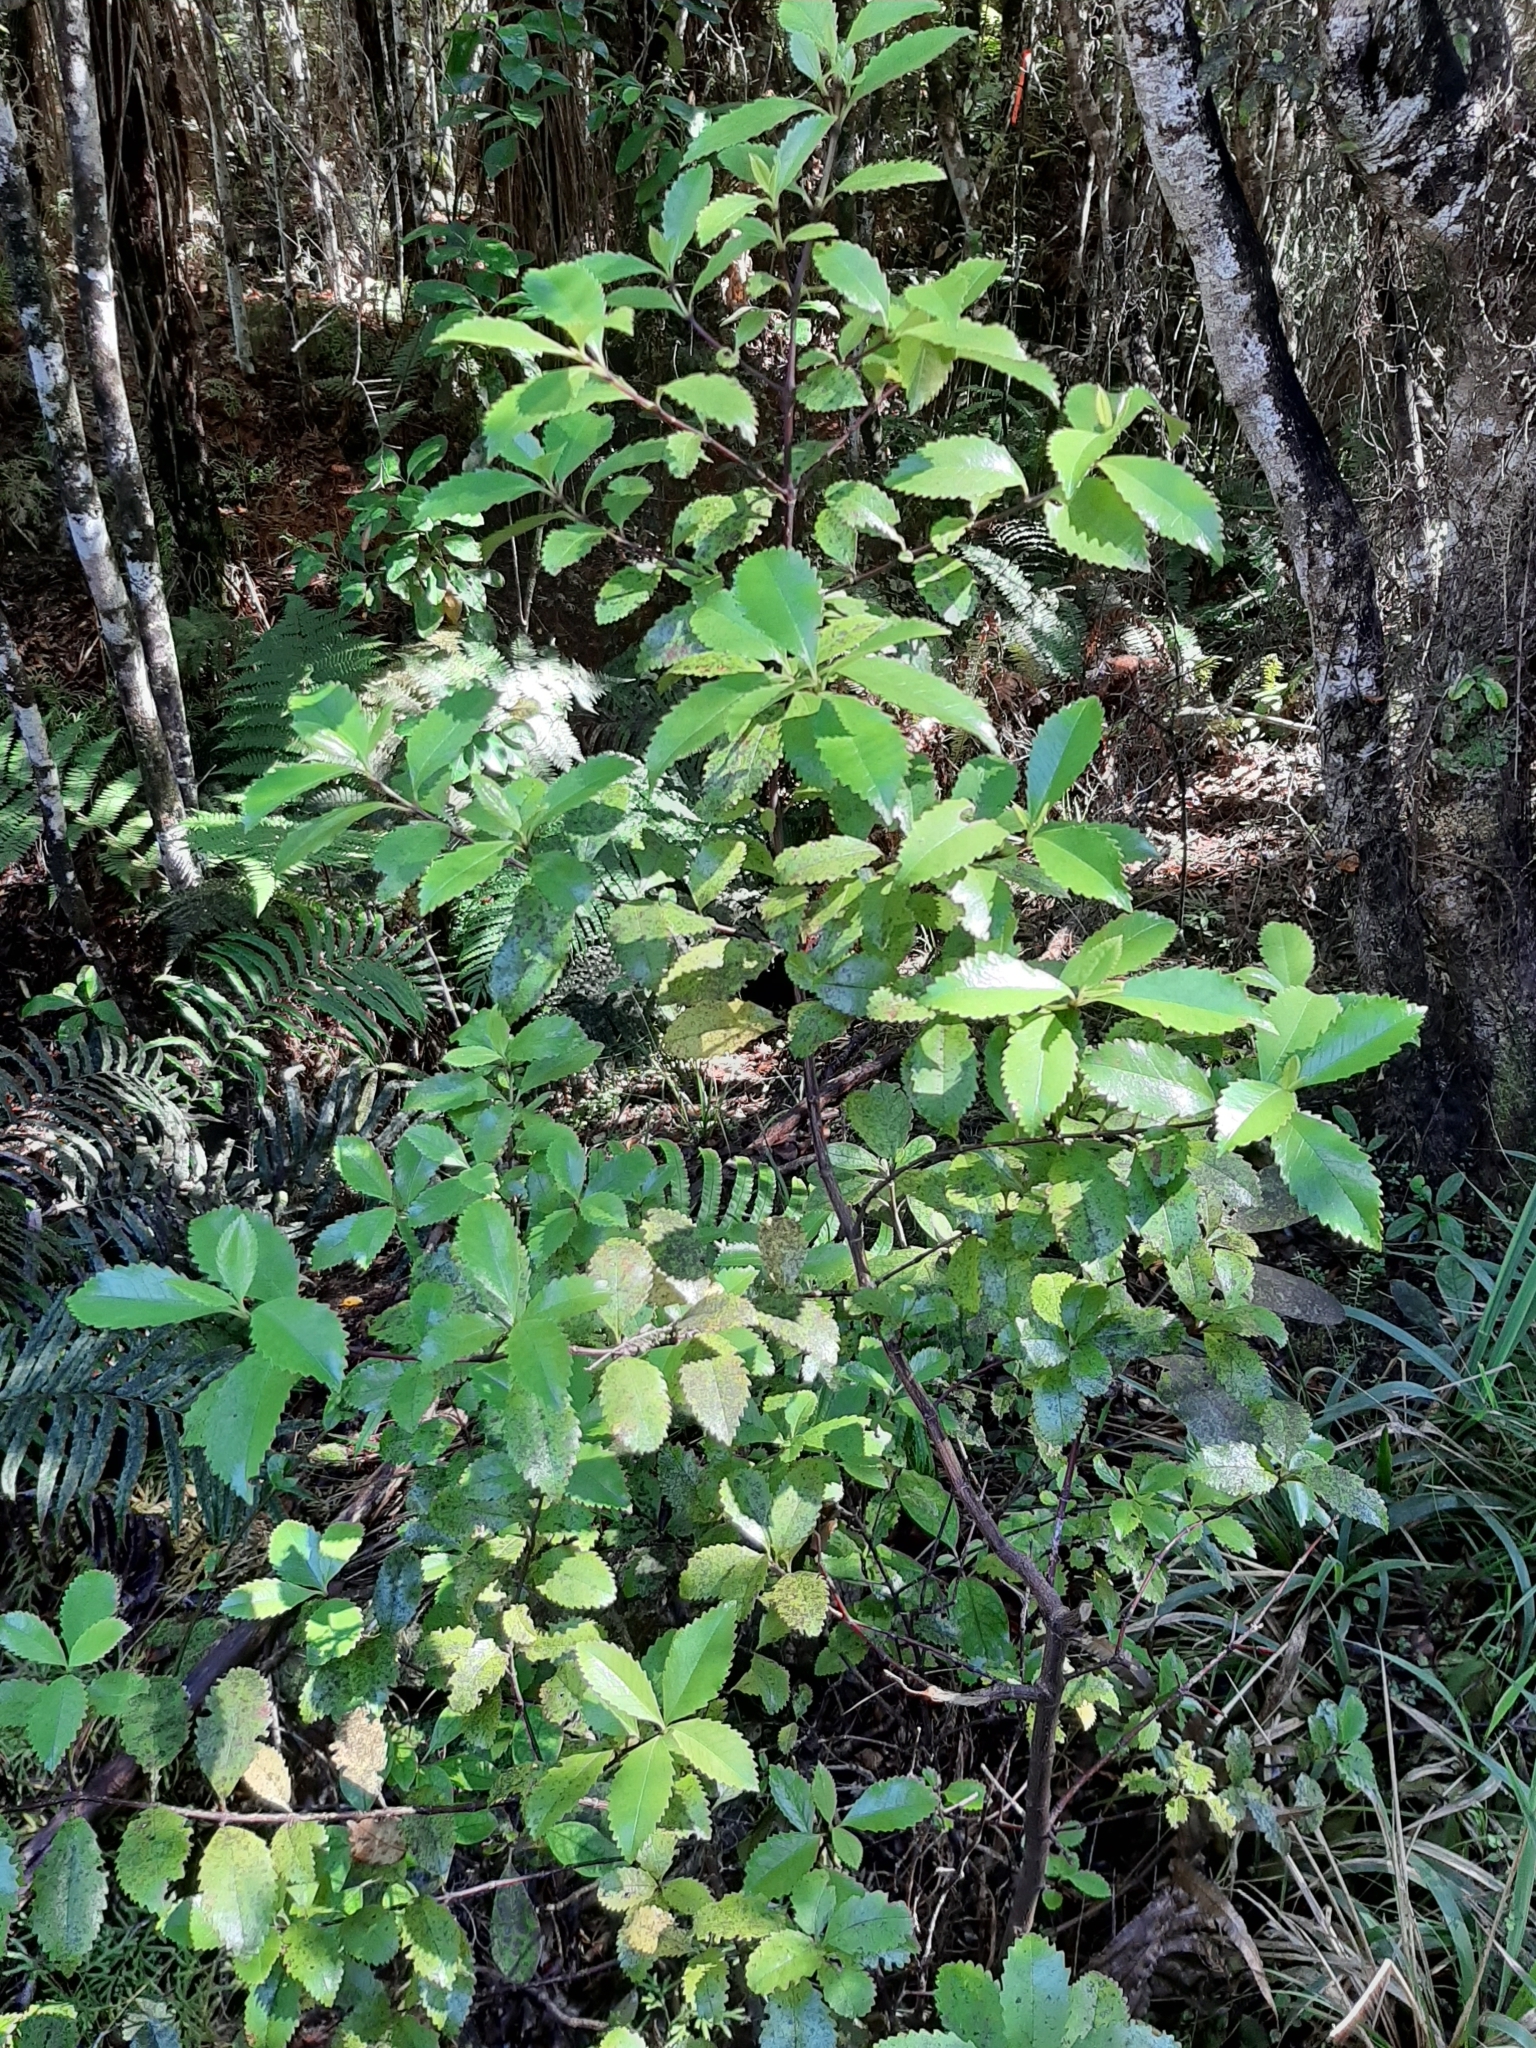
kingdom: Plantae
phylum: Tracheophyta
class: Magnoliopsida
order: Chloranthales
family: Chloranthaceae
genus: Ascarina
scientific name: Ascarina lucida
